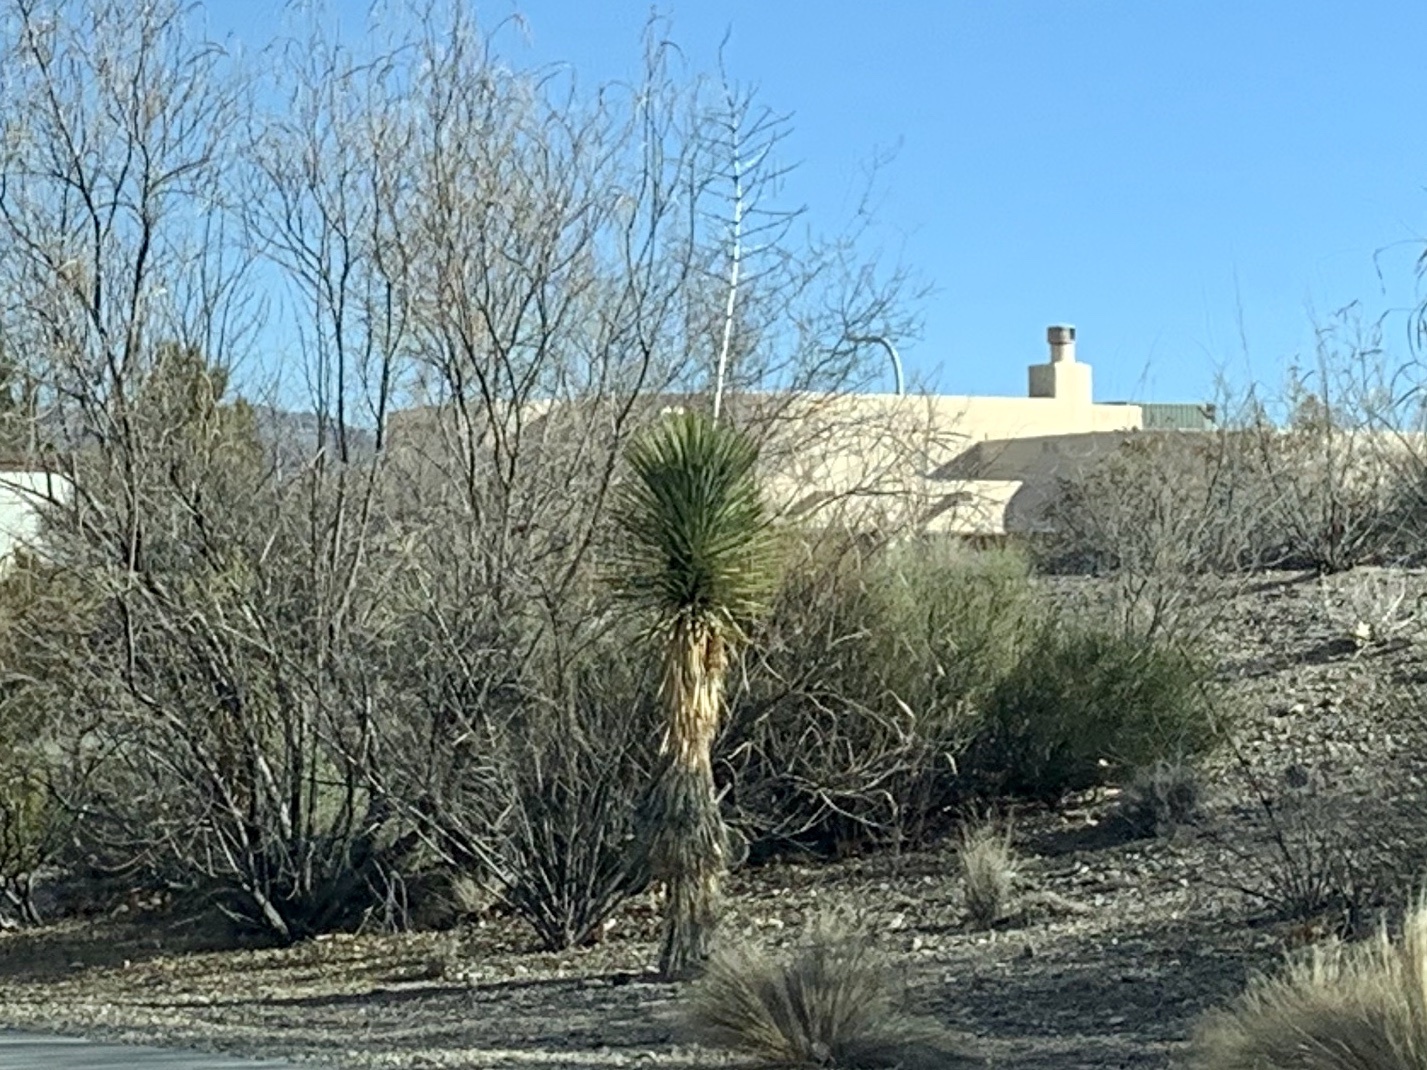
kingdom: Plantae
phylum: Tracheophyta
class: Liliopsida
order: Asparagales
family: Asparagaceae
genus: Yucca
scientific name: Yucca elata
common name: Palmella
